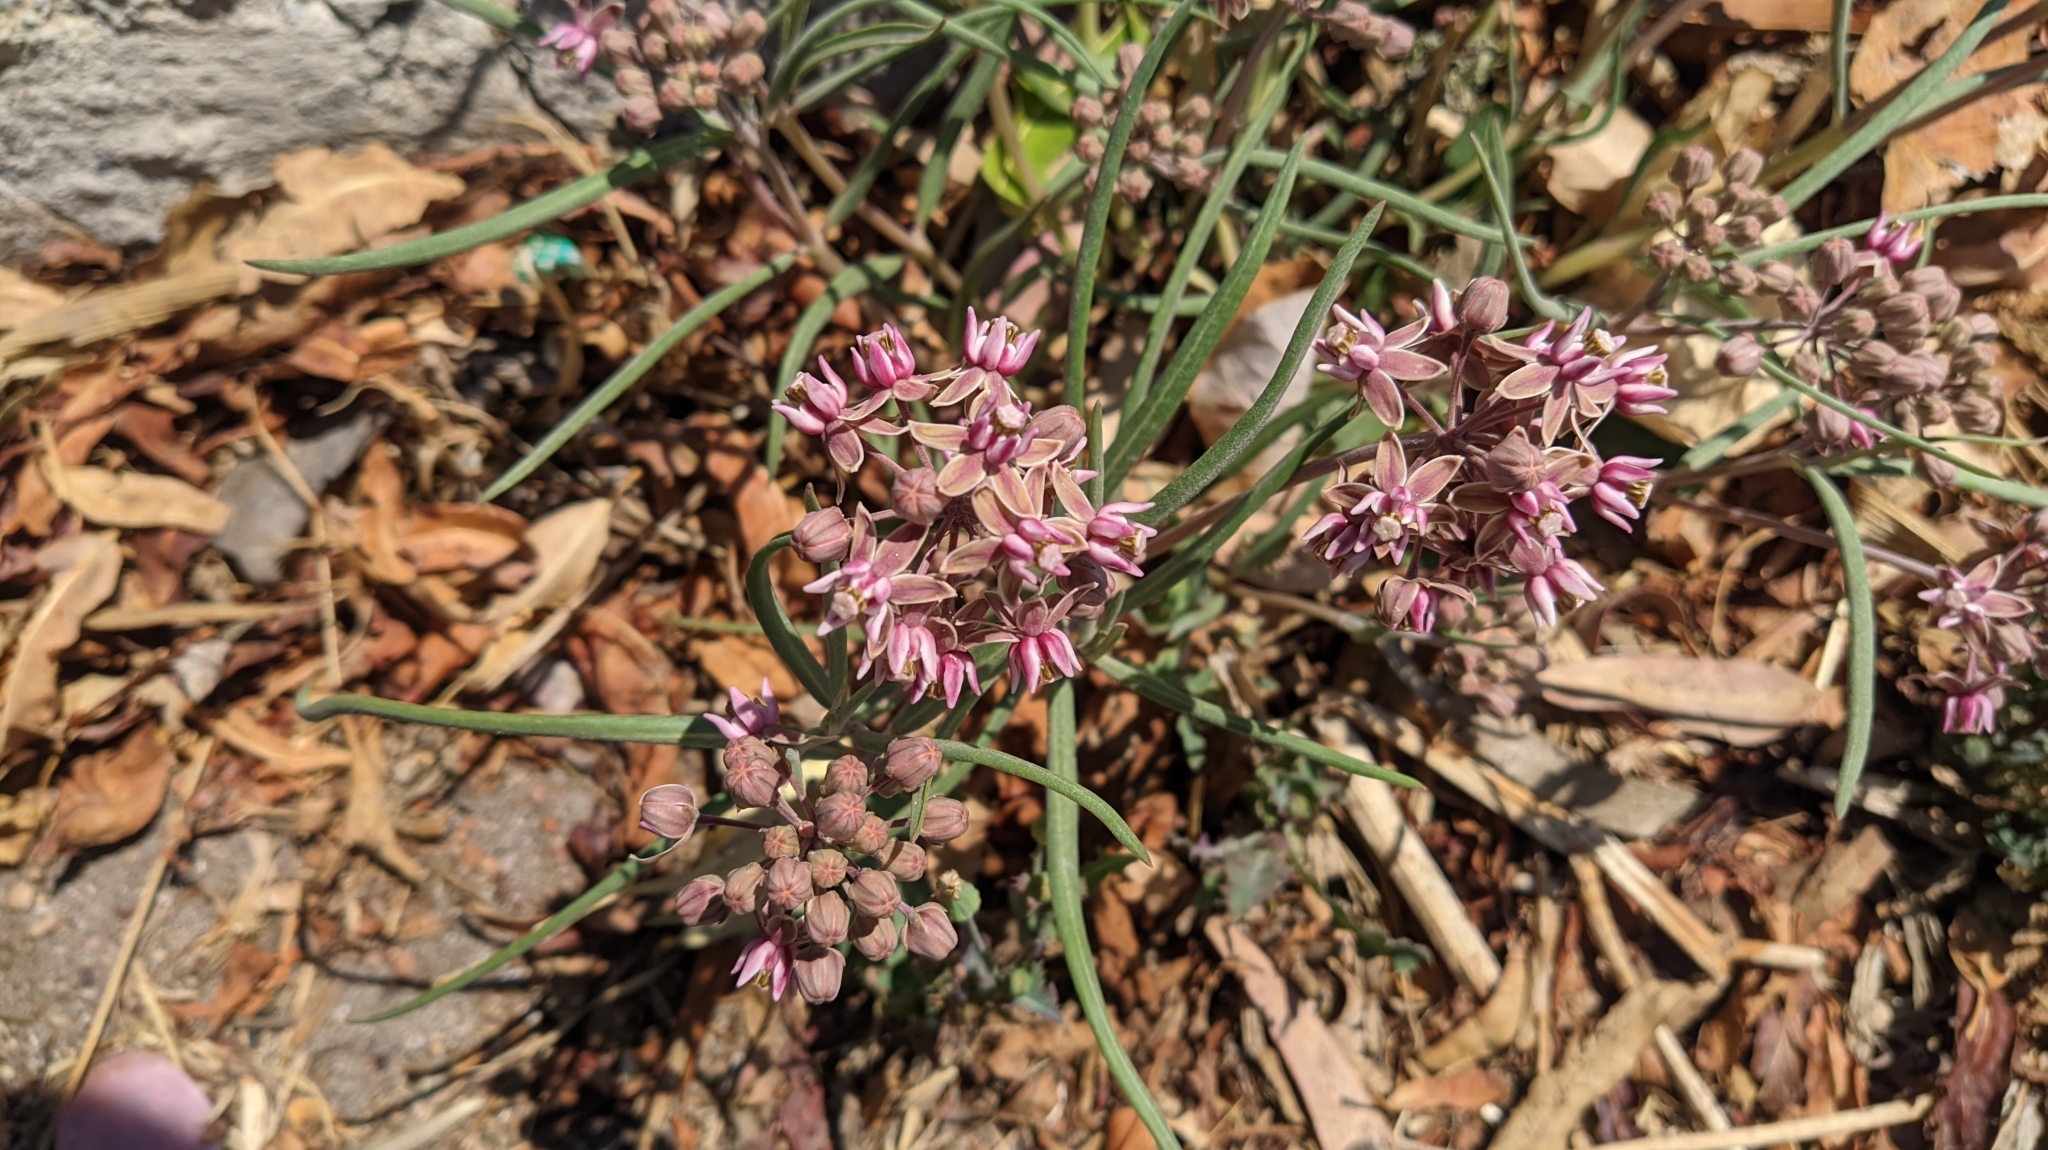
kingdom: Plantae
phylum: Tracheophyta
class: Magnoliopsida
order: Gentianales
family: Apocynaceae
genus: Asclepias
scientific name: Asclepias fournieri
